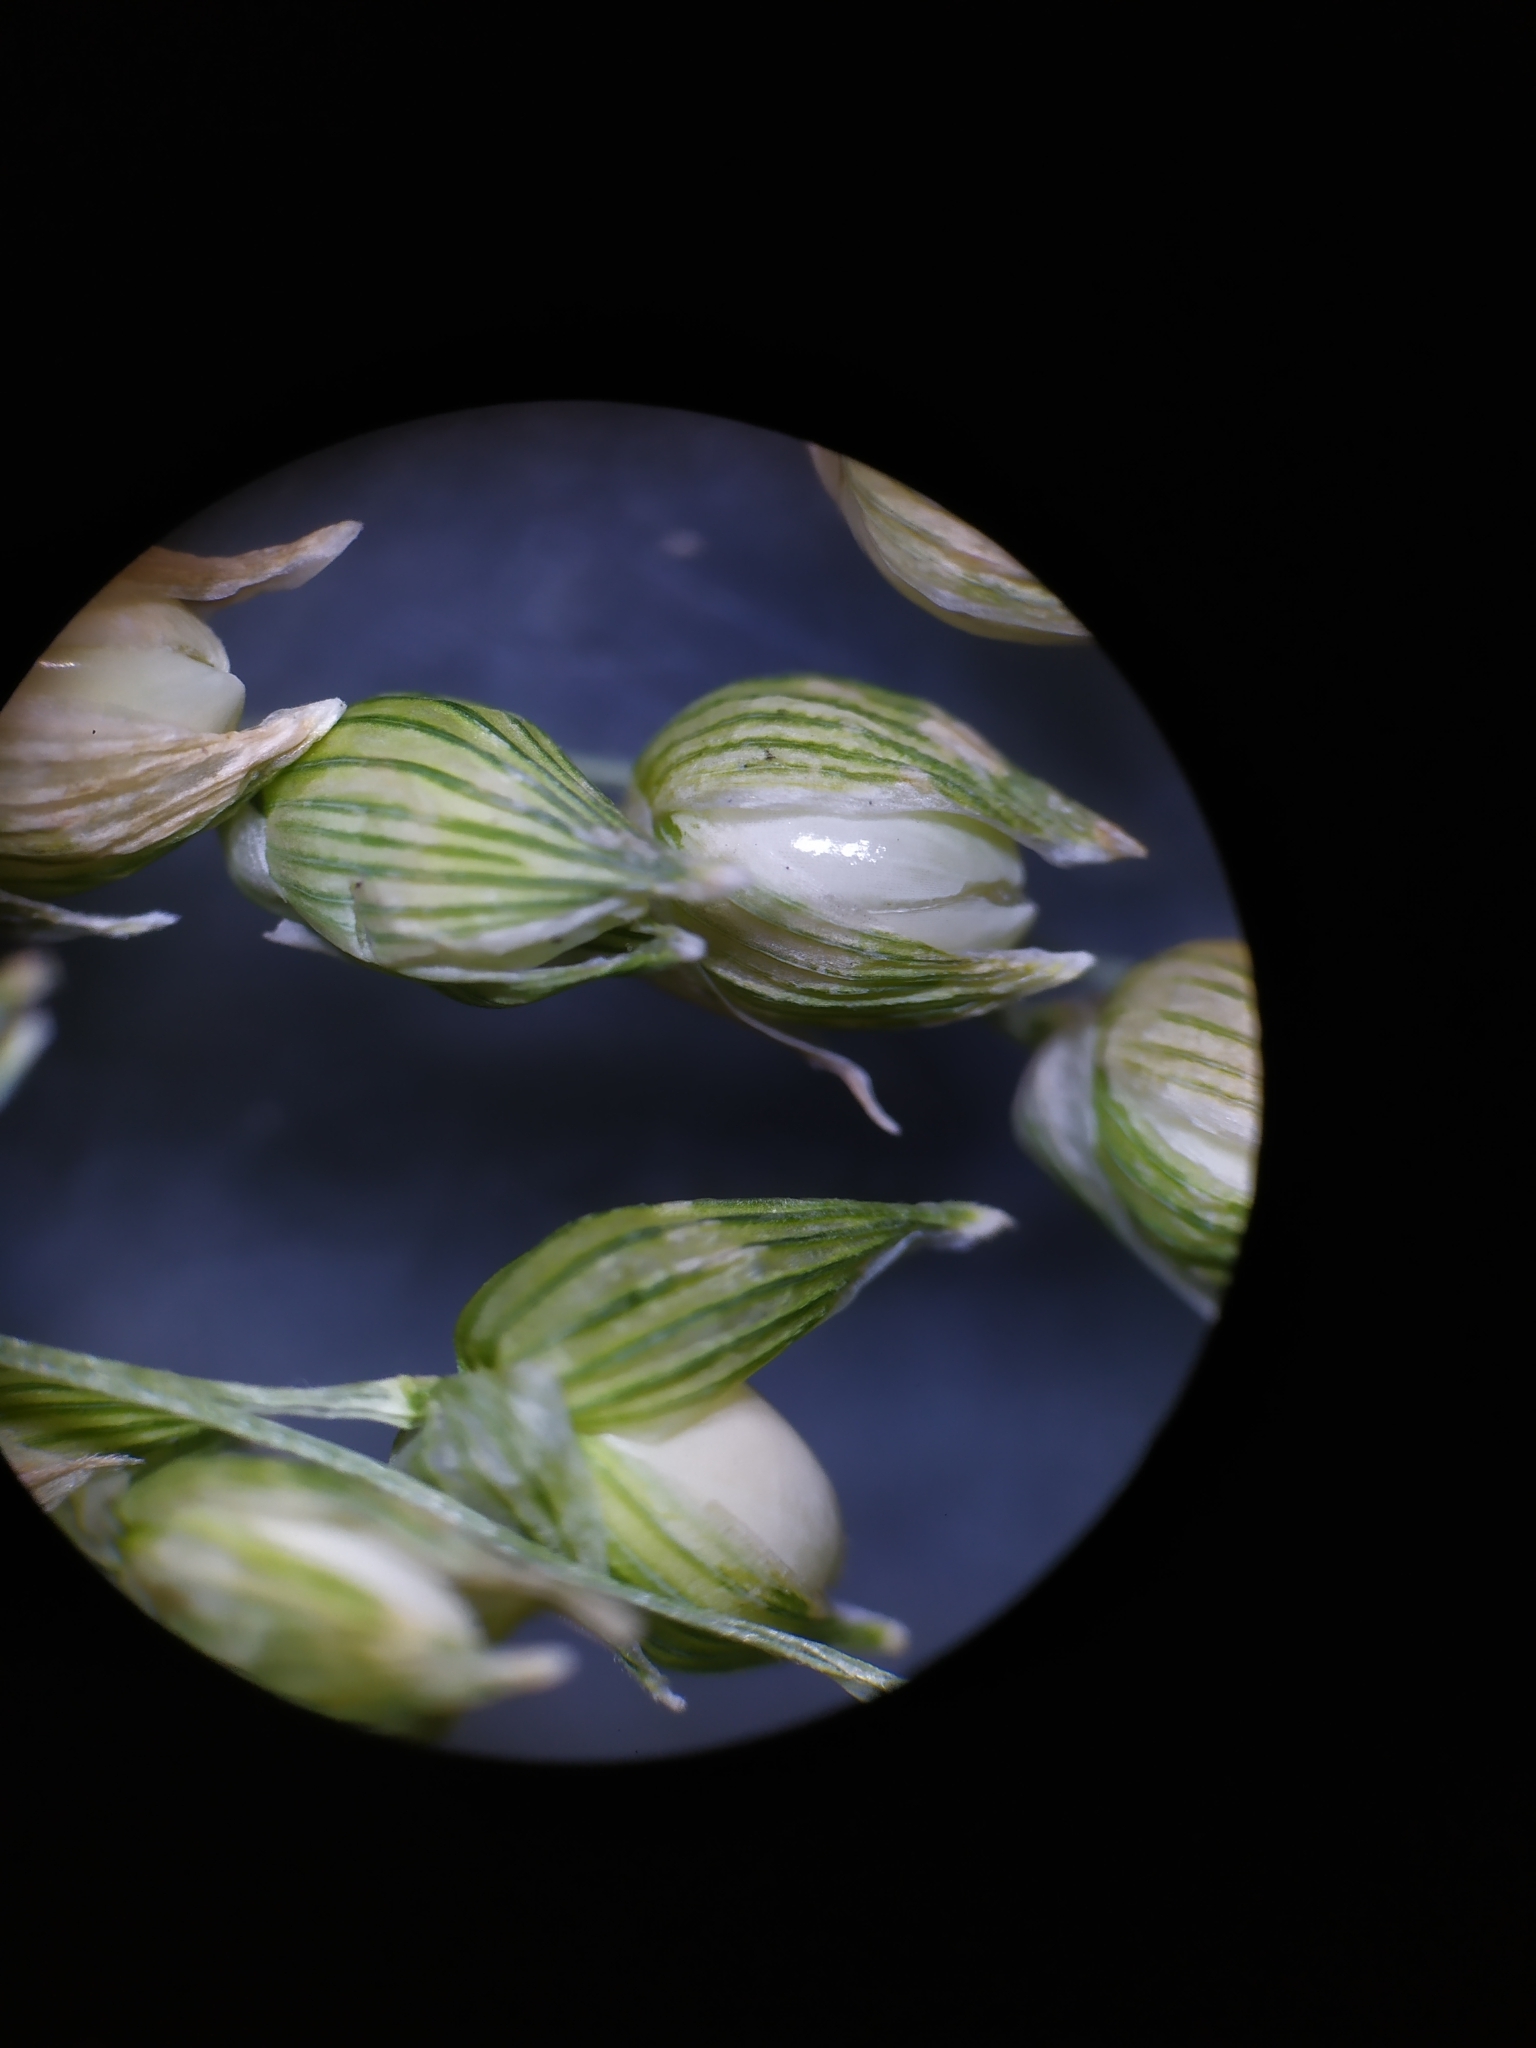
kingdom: Plantae
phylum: Tracheophyta
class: Liliopsida
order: Poales
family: Poaceae
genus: Panicum
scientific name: Panicum miliaceum
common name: Common millet
